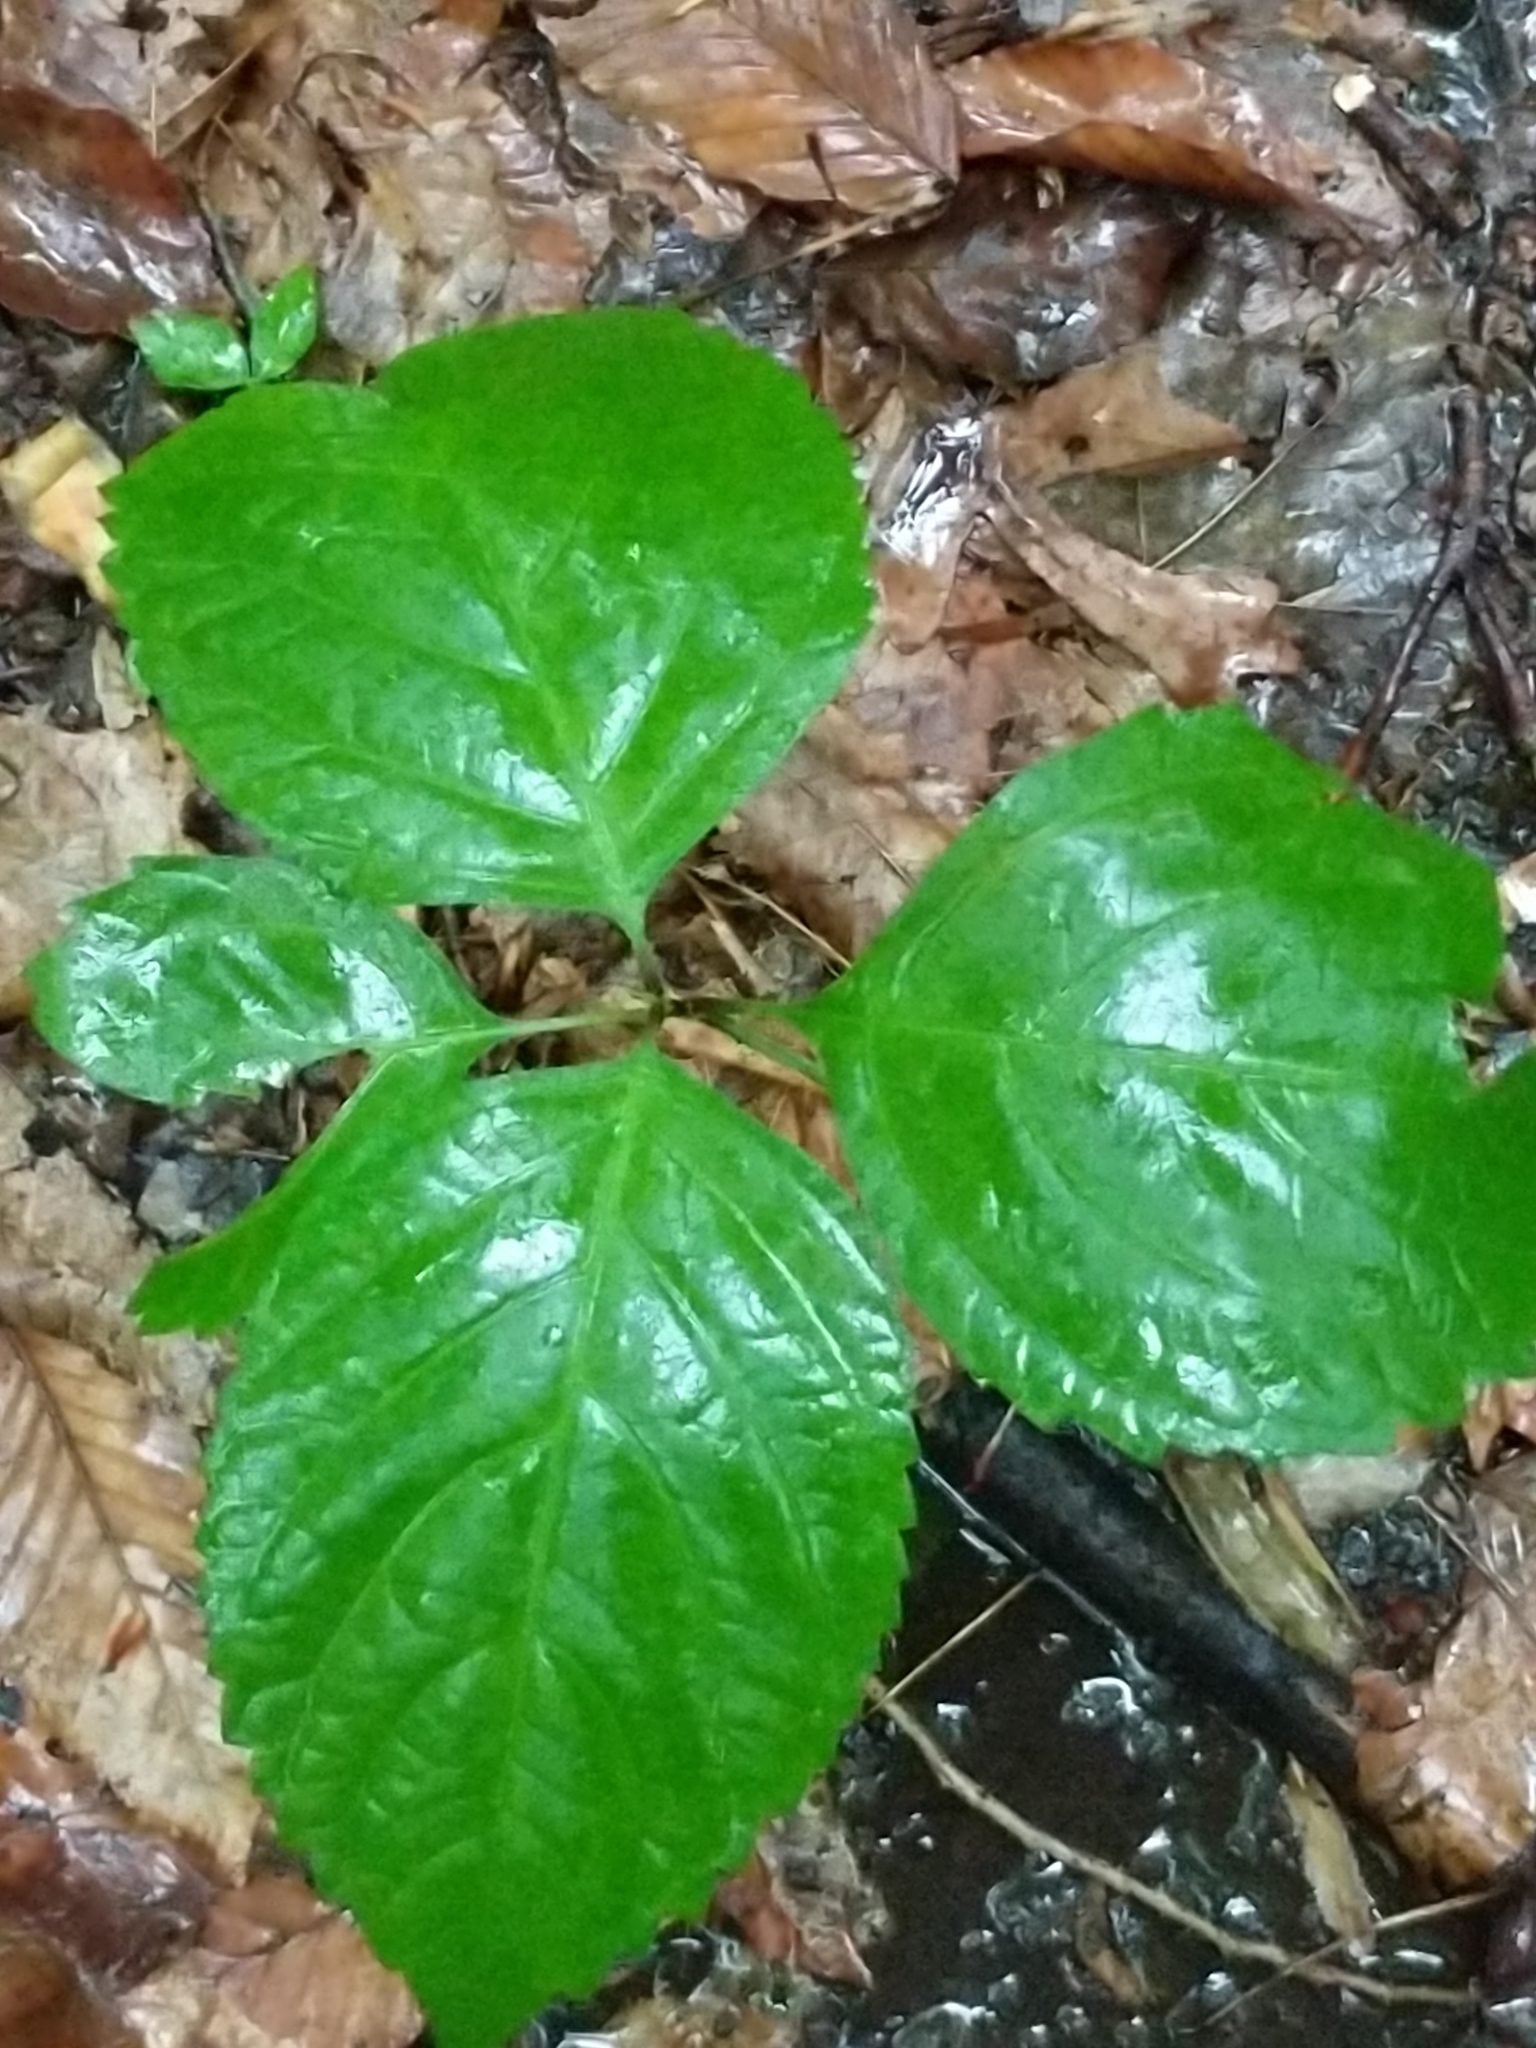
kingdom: Plantae
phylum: Tracheophyta
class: Magnoliopsida
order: Lamiales
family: Lamiaceae
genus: Collinsonia
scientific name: Collinsonia canadensis
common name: Northern horsebalm
